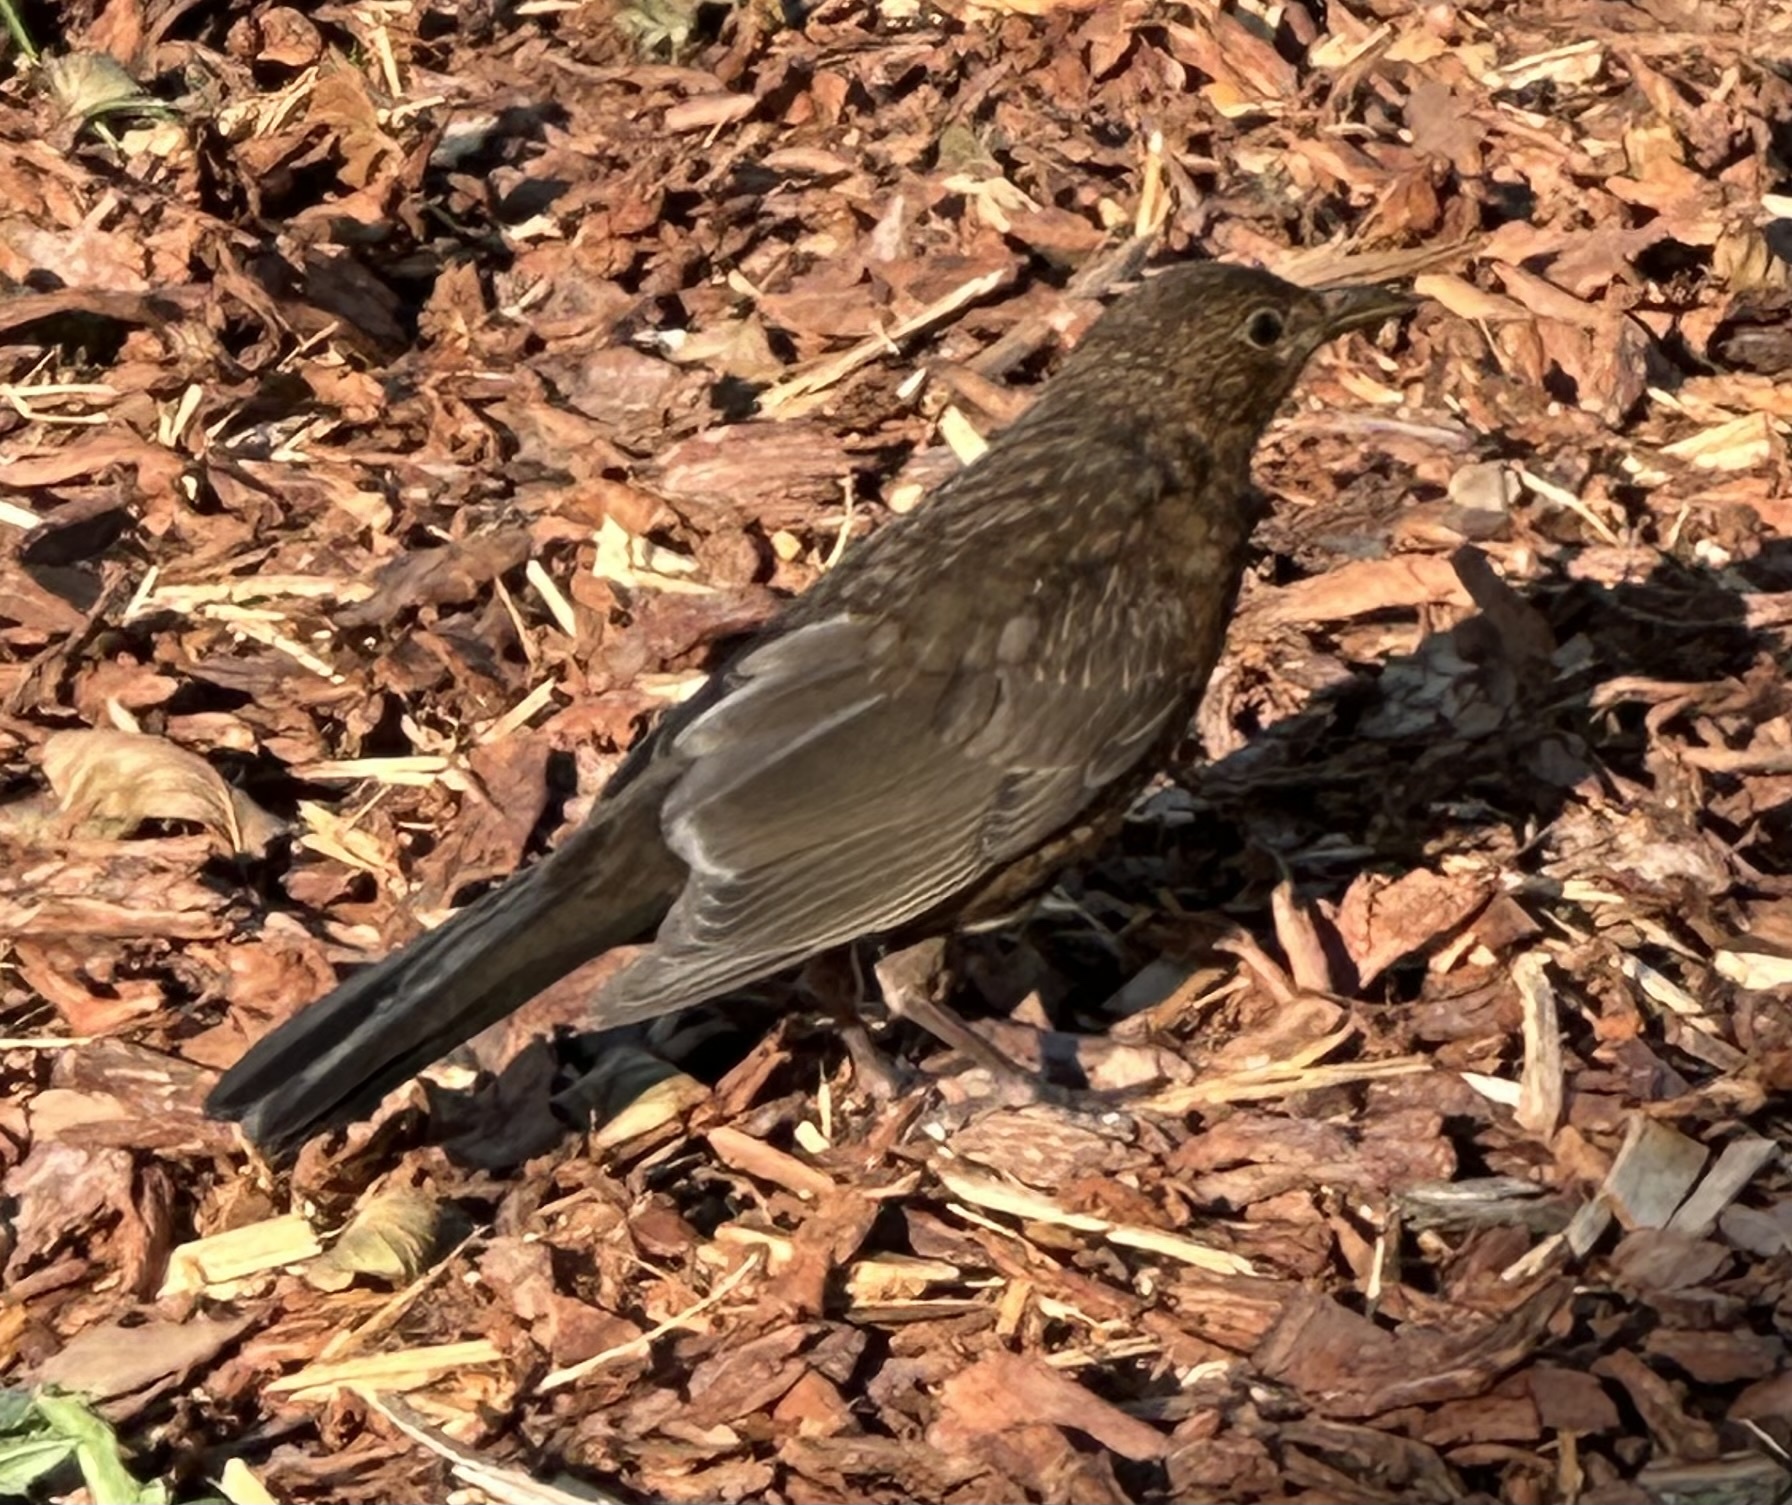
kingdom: Animalia
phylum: Chordata
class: Aves
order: Passeriformes
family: Turdidae
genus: Turdus
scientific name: Turdus merula
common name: Common blackbird
